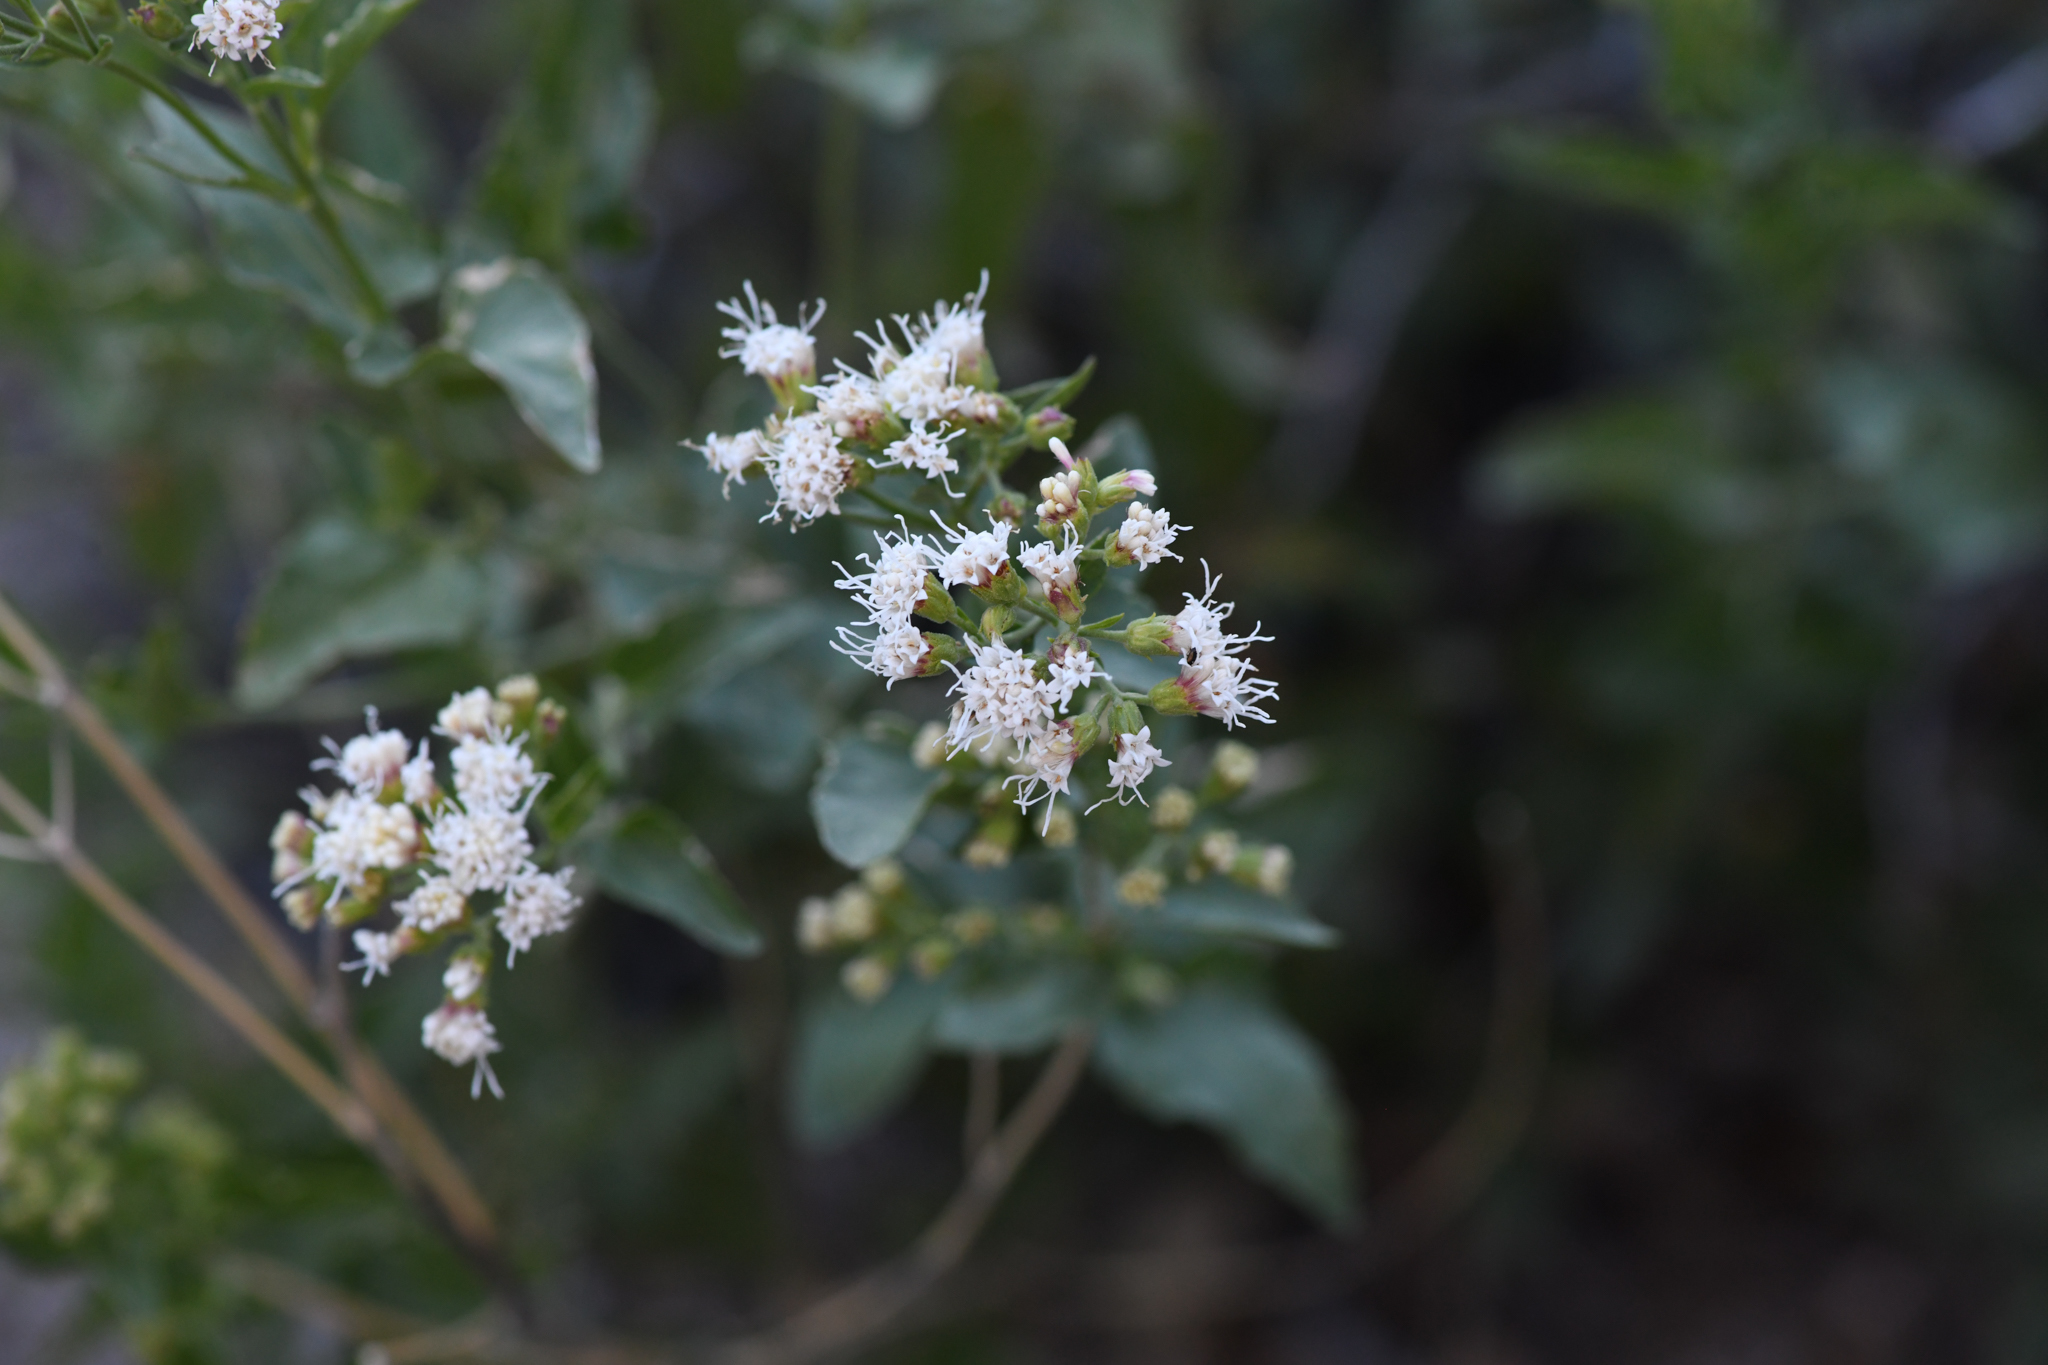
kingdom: Plantae
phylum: Tracheophyta
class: Magnoliopsida
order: Asterales
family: Asteraceae
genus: Ageratina
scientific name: Ageratina herbacea
